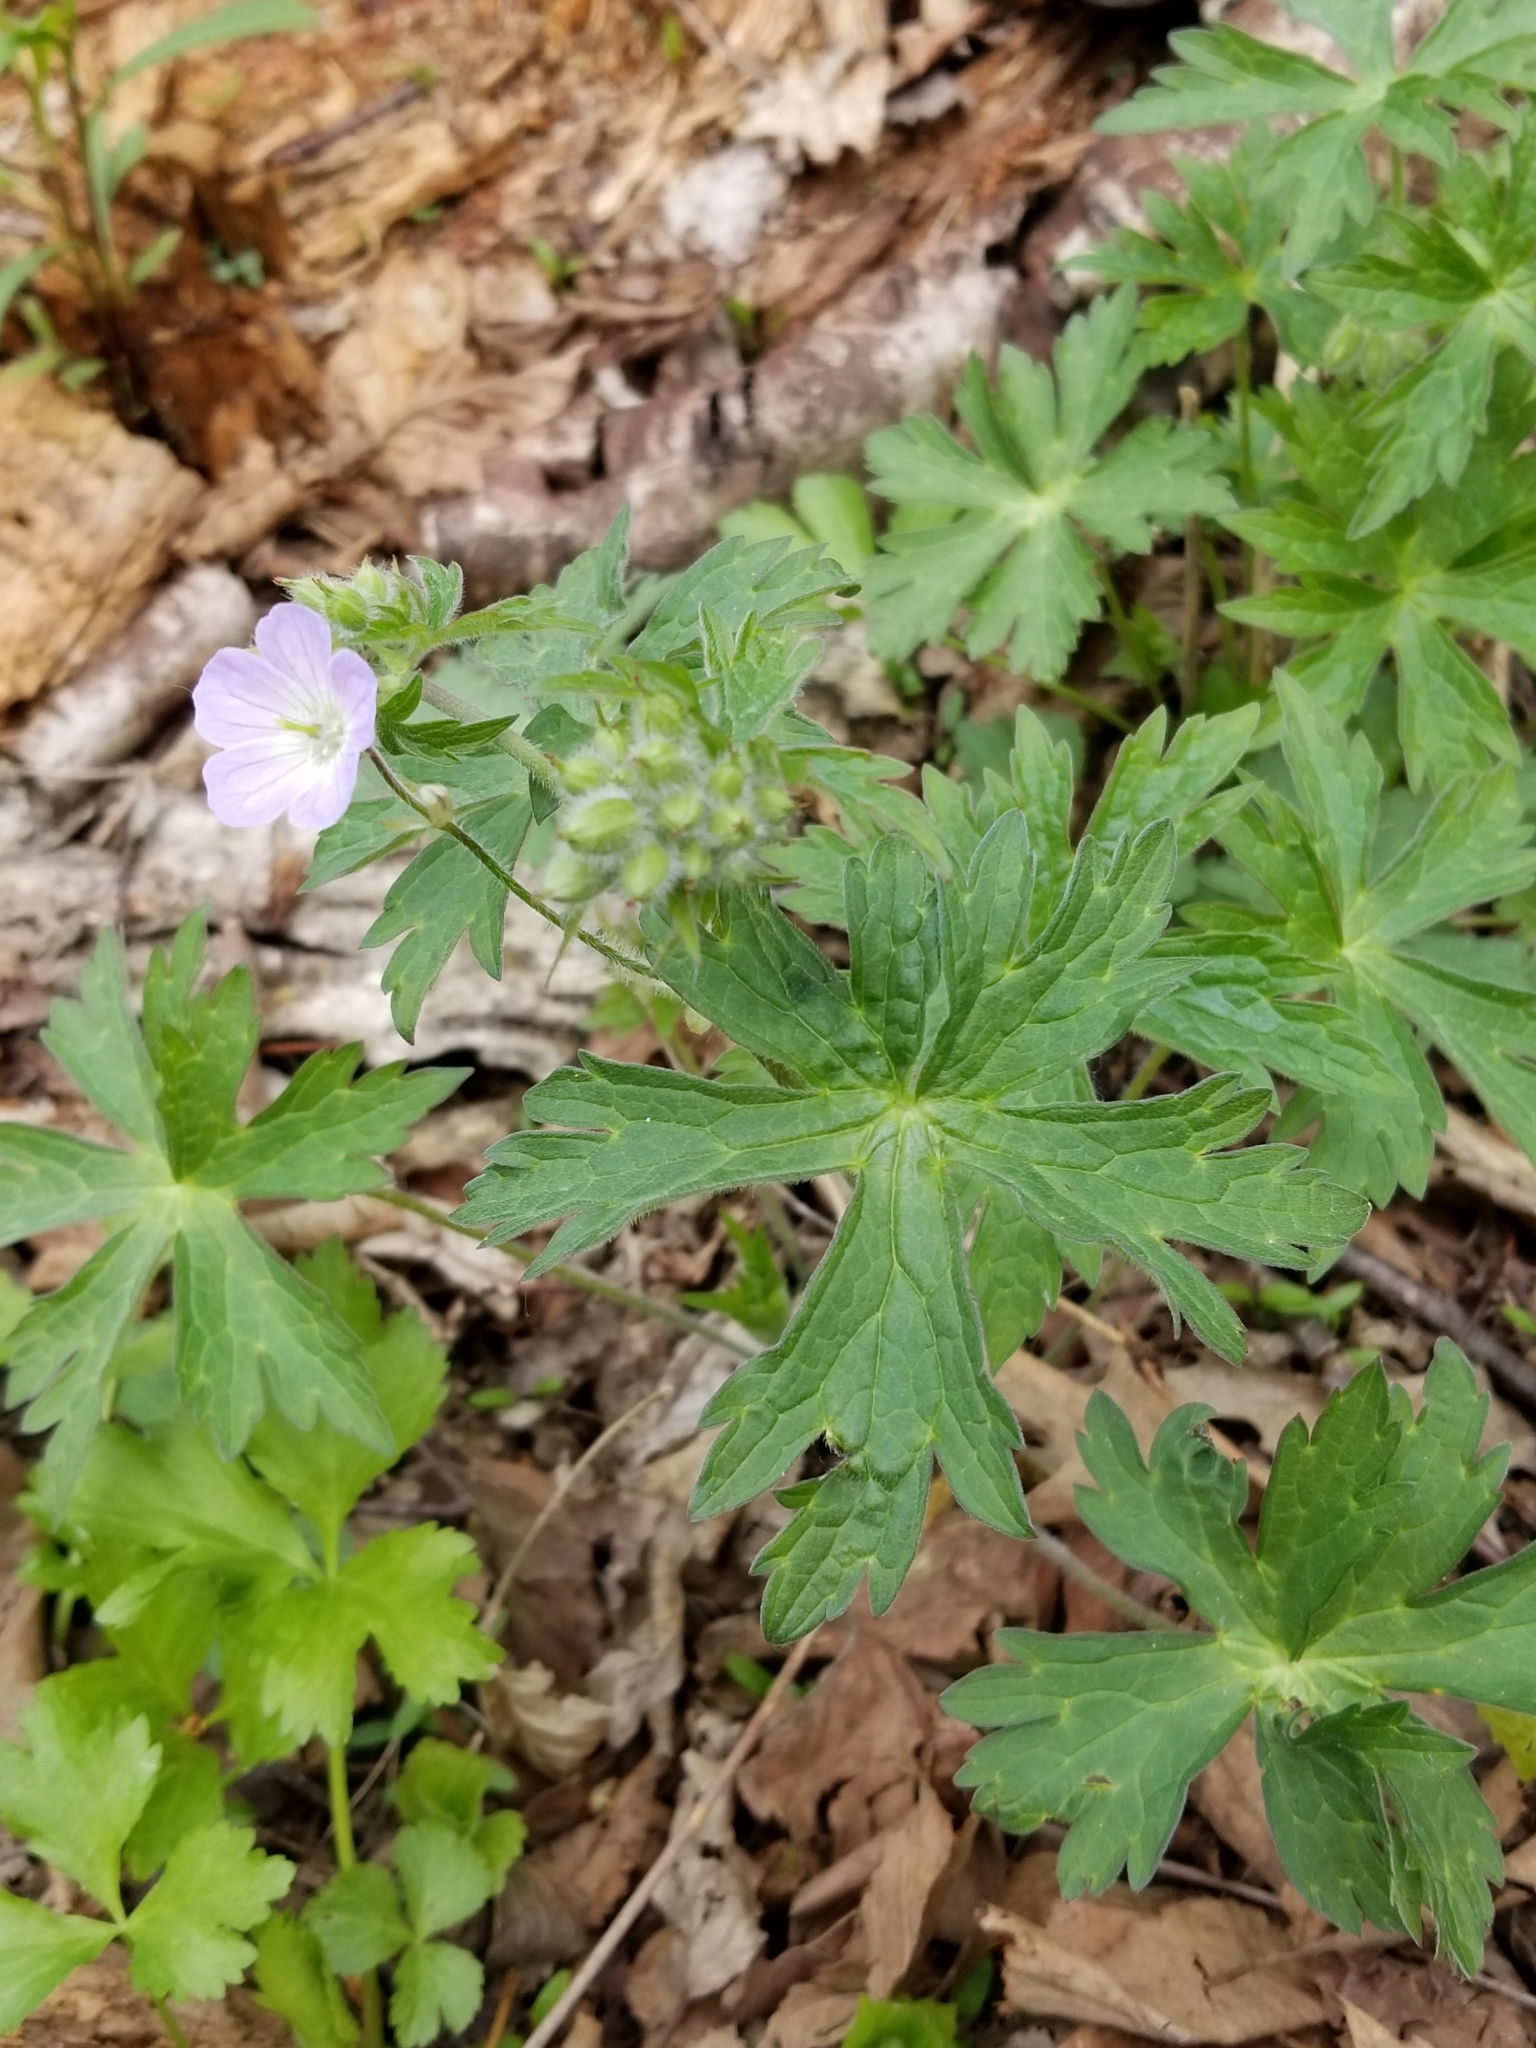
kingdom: Plantae
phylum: Tracheophyta
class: Magnoliopsida
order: Geraniales
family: Geraniaceae
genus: Geranium
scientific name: Geranium maculatum
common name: Spotted geranium
